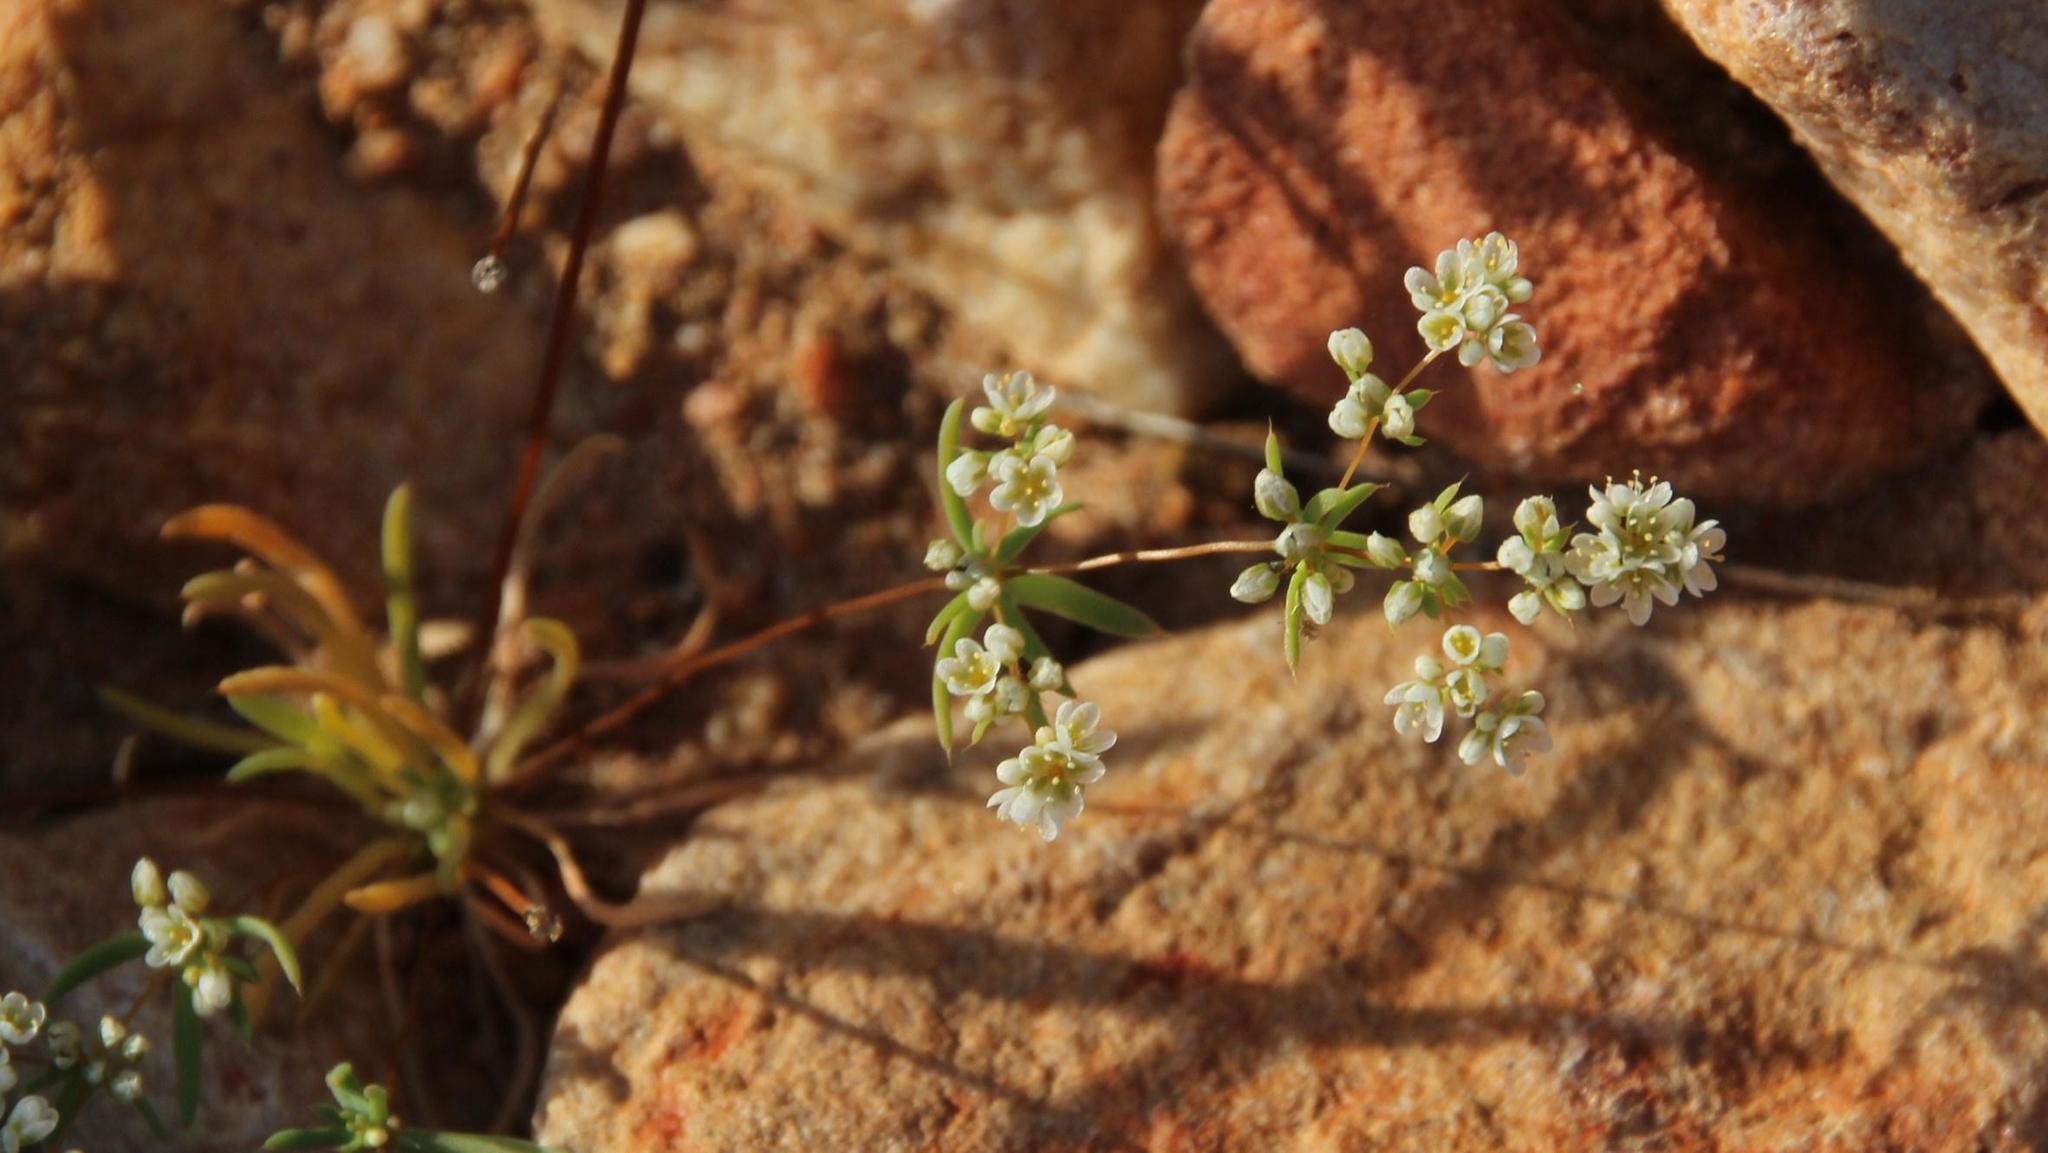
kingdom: Plantae
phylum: Tracheophyta
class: Magnoliopsida
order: Caryophyllales
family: Molluginaceae
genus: Adenogramma
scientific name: Adenogramma glomerata
